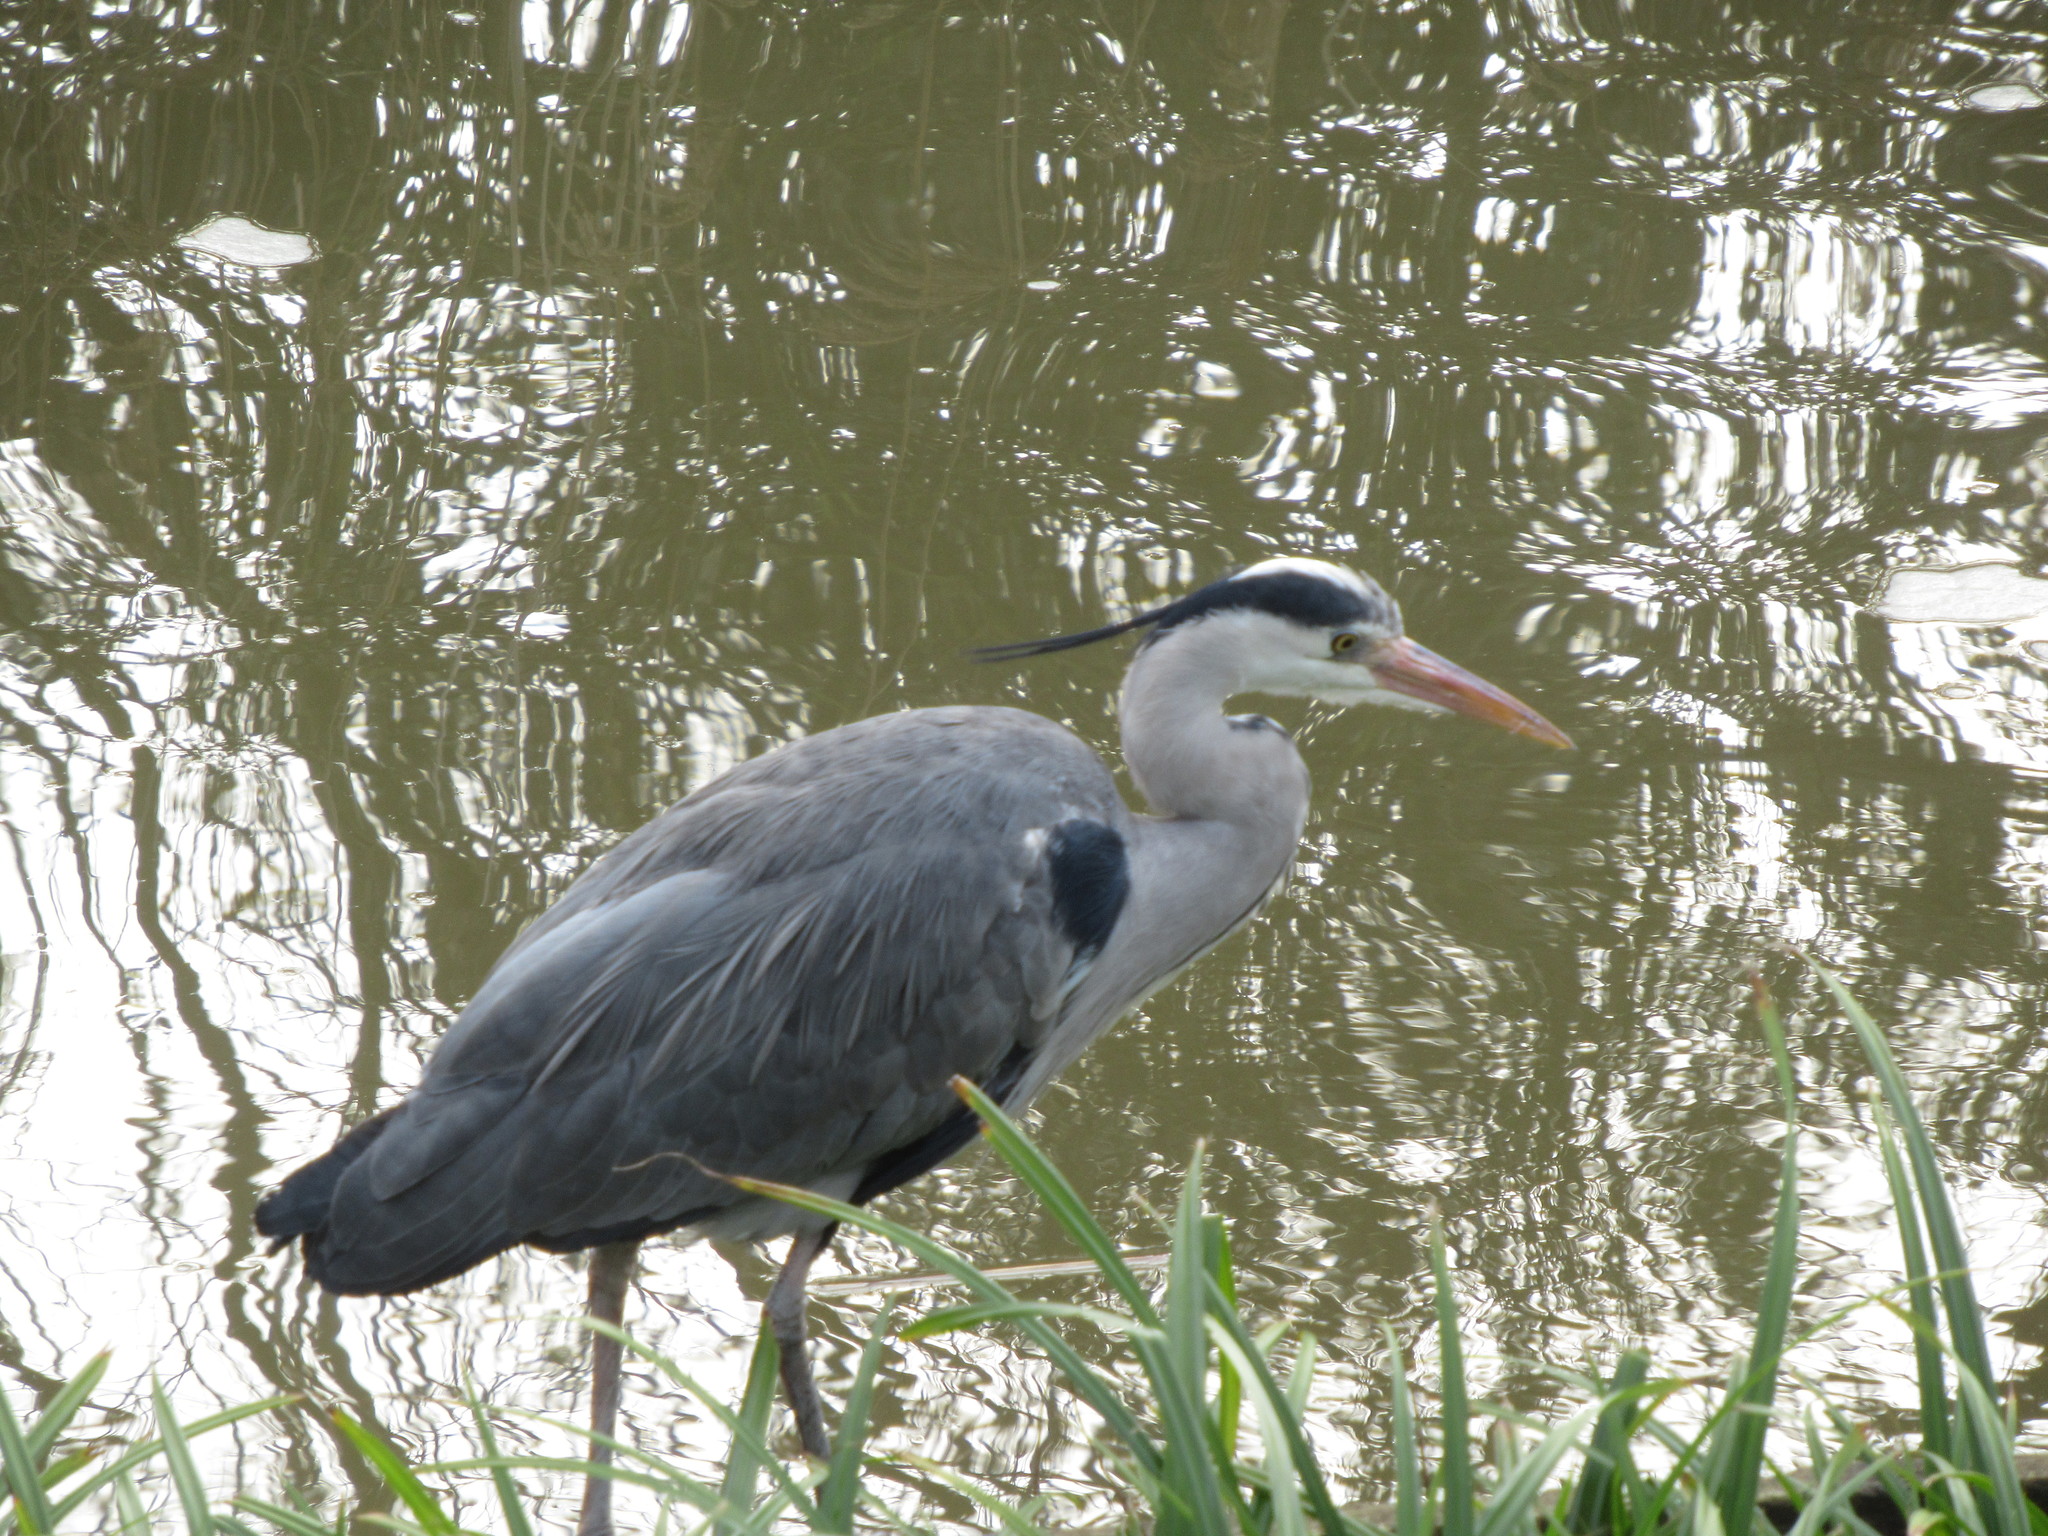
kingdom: Animalia
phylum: Chordata
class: Aves
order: Pelecaniformes
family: Ardeidae
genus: Ardea
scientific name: Ardea cinerea
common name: Grey heron
